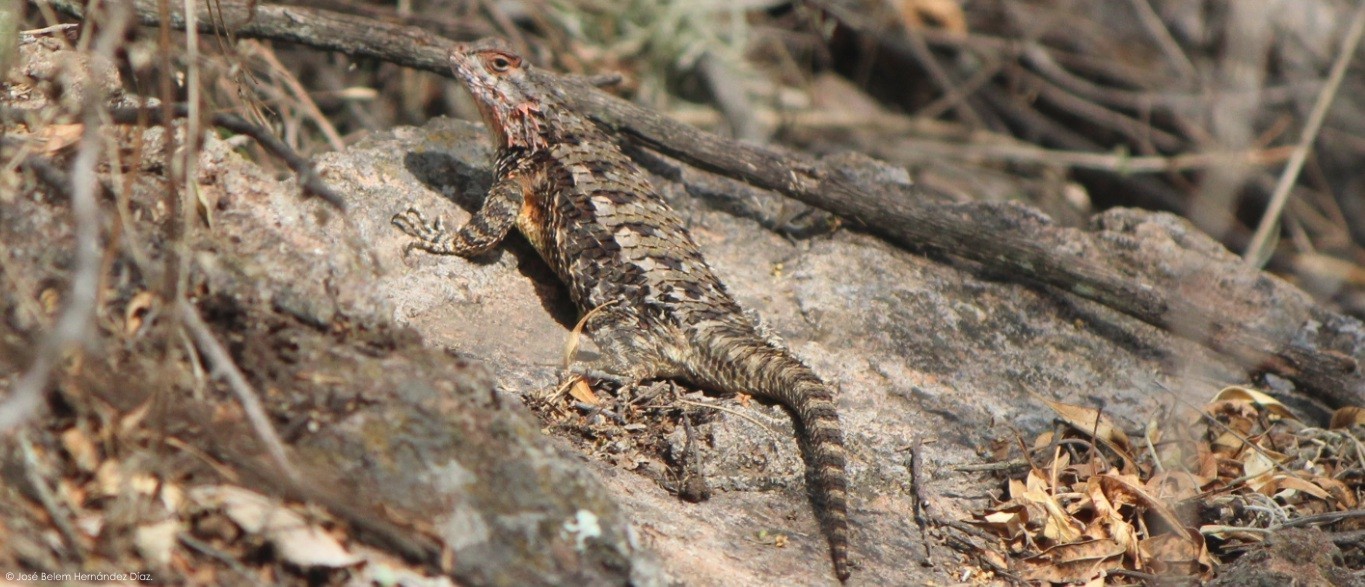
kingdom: Animalia
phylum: Chordata
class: Squamata
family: Phrynosomatidae
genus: Sceloporus
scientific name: Sceloporus spinosus
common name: Blue-spotted spiny lizard [caeruleopunctatus]
